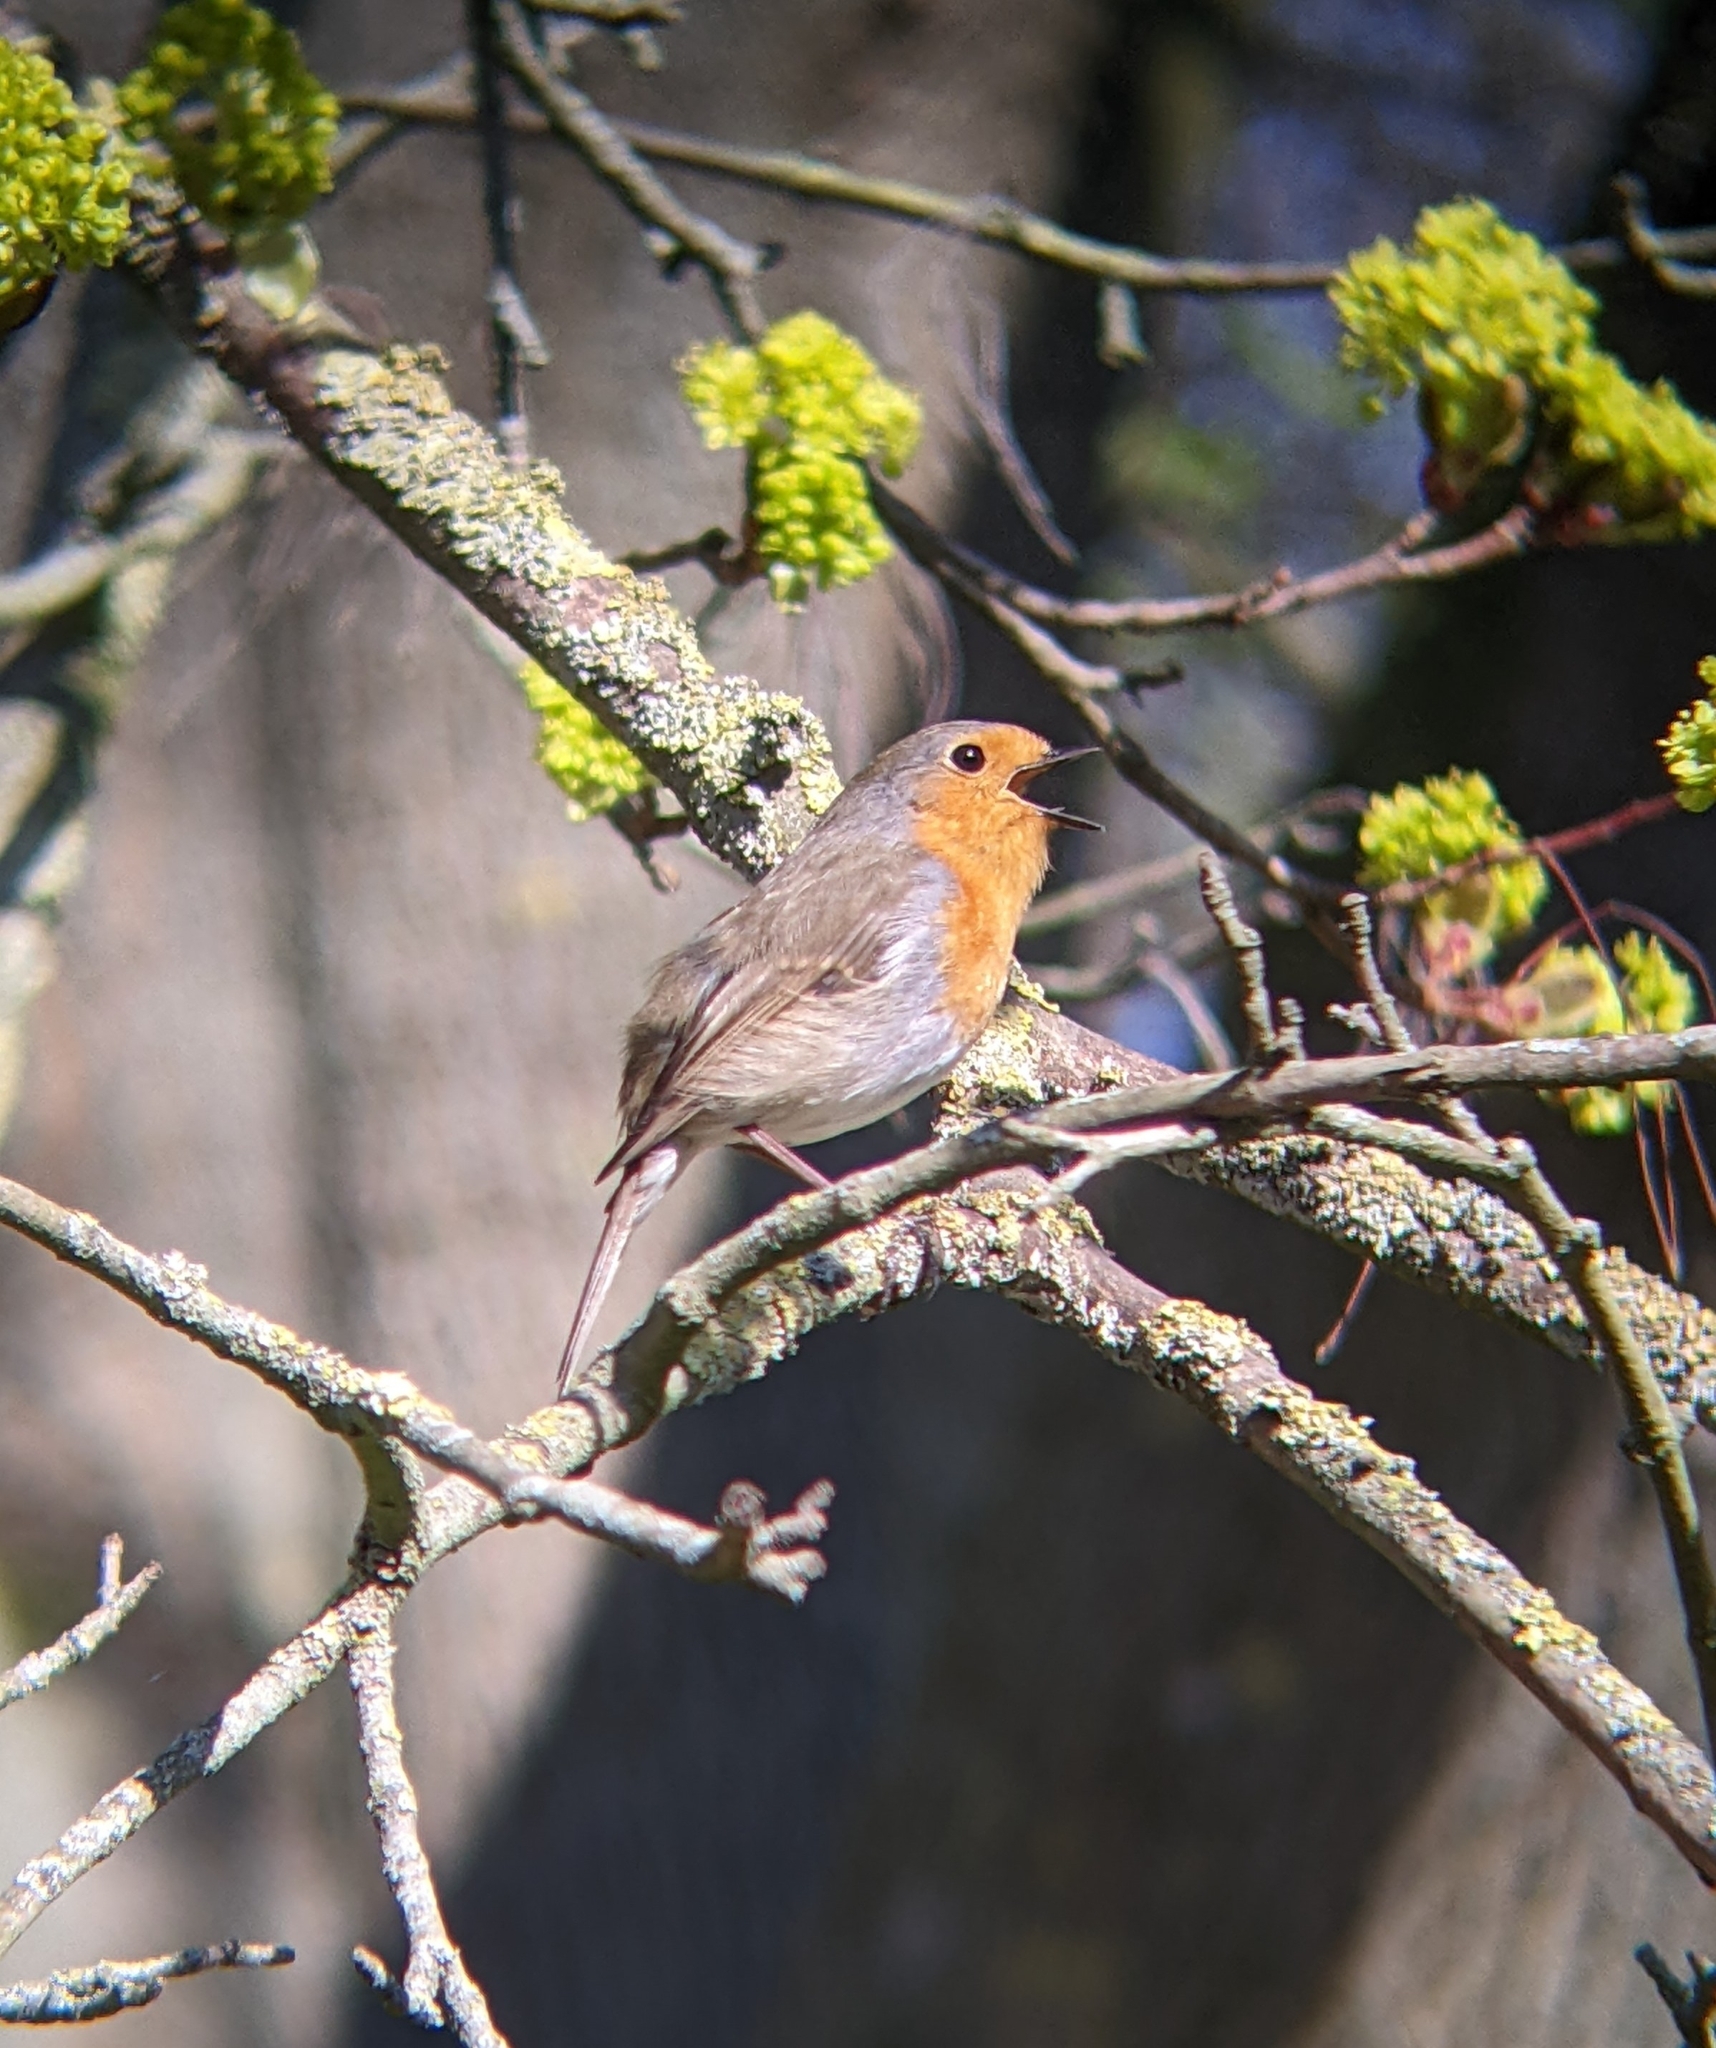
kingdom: Animalia
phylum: Chordata
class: Aves
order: Passeriformes
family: Muscicapidae
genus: Erithacus
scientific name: Erithacus rubecula
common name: European robin
